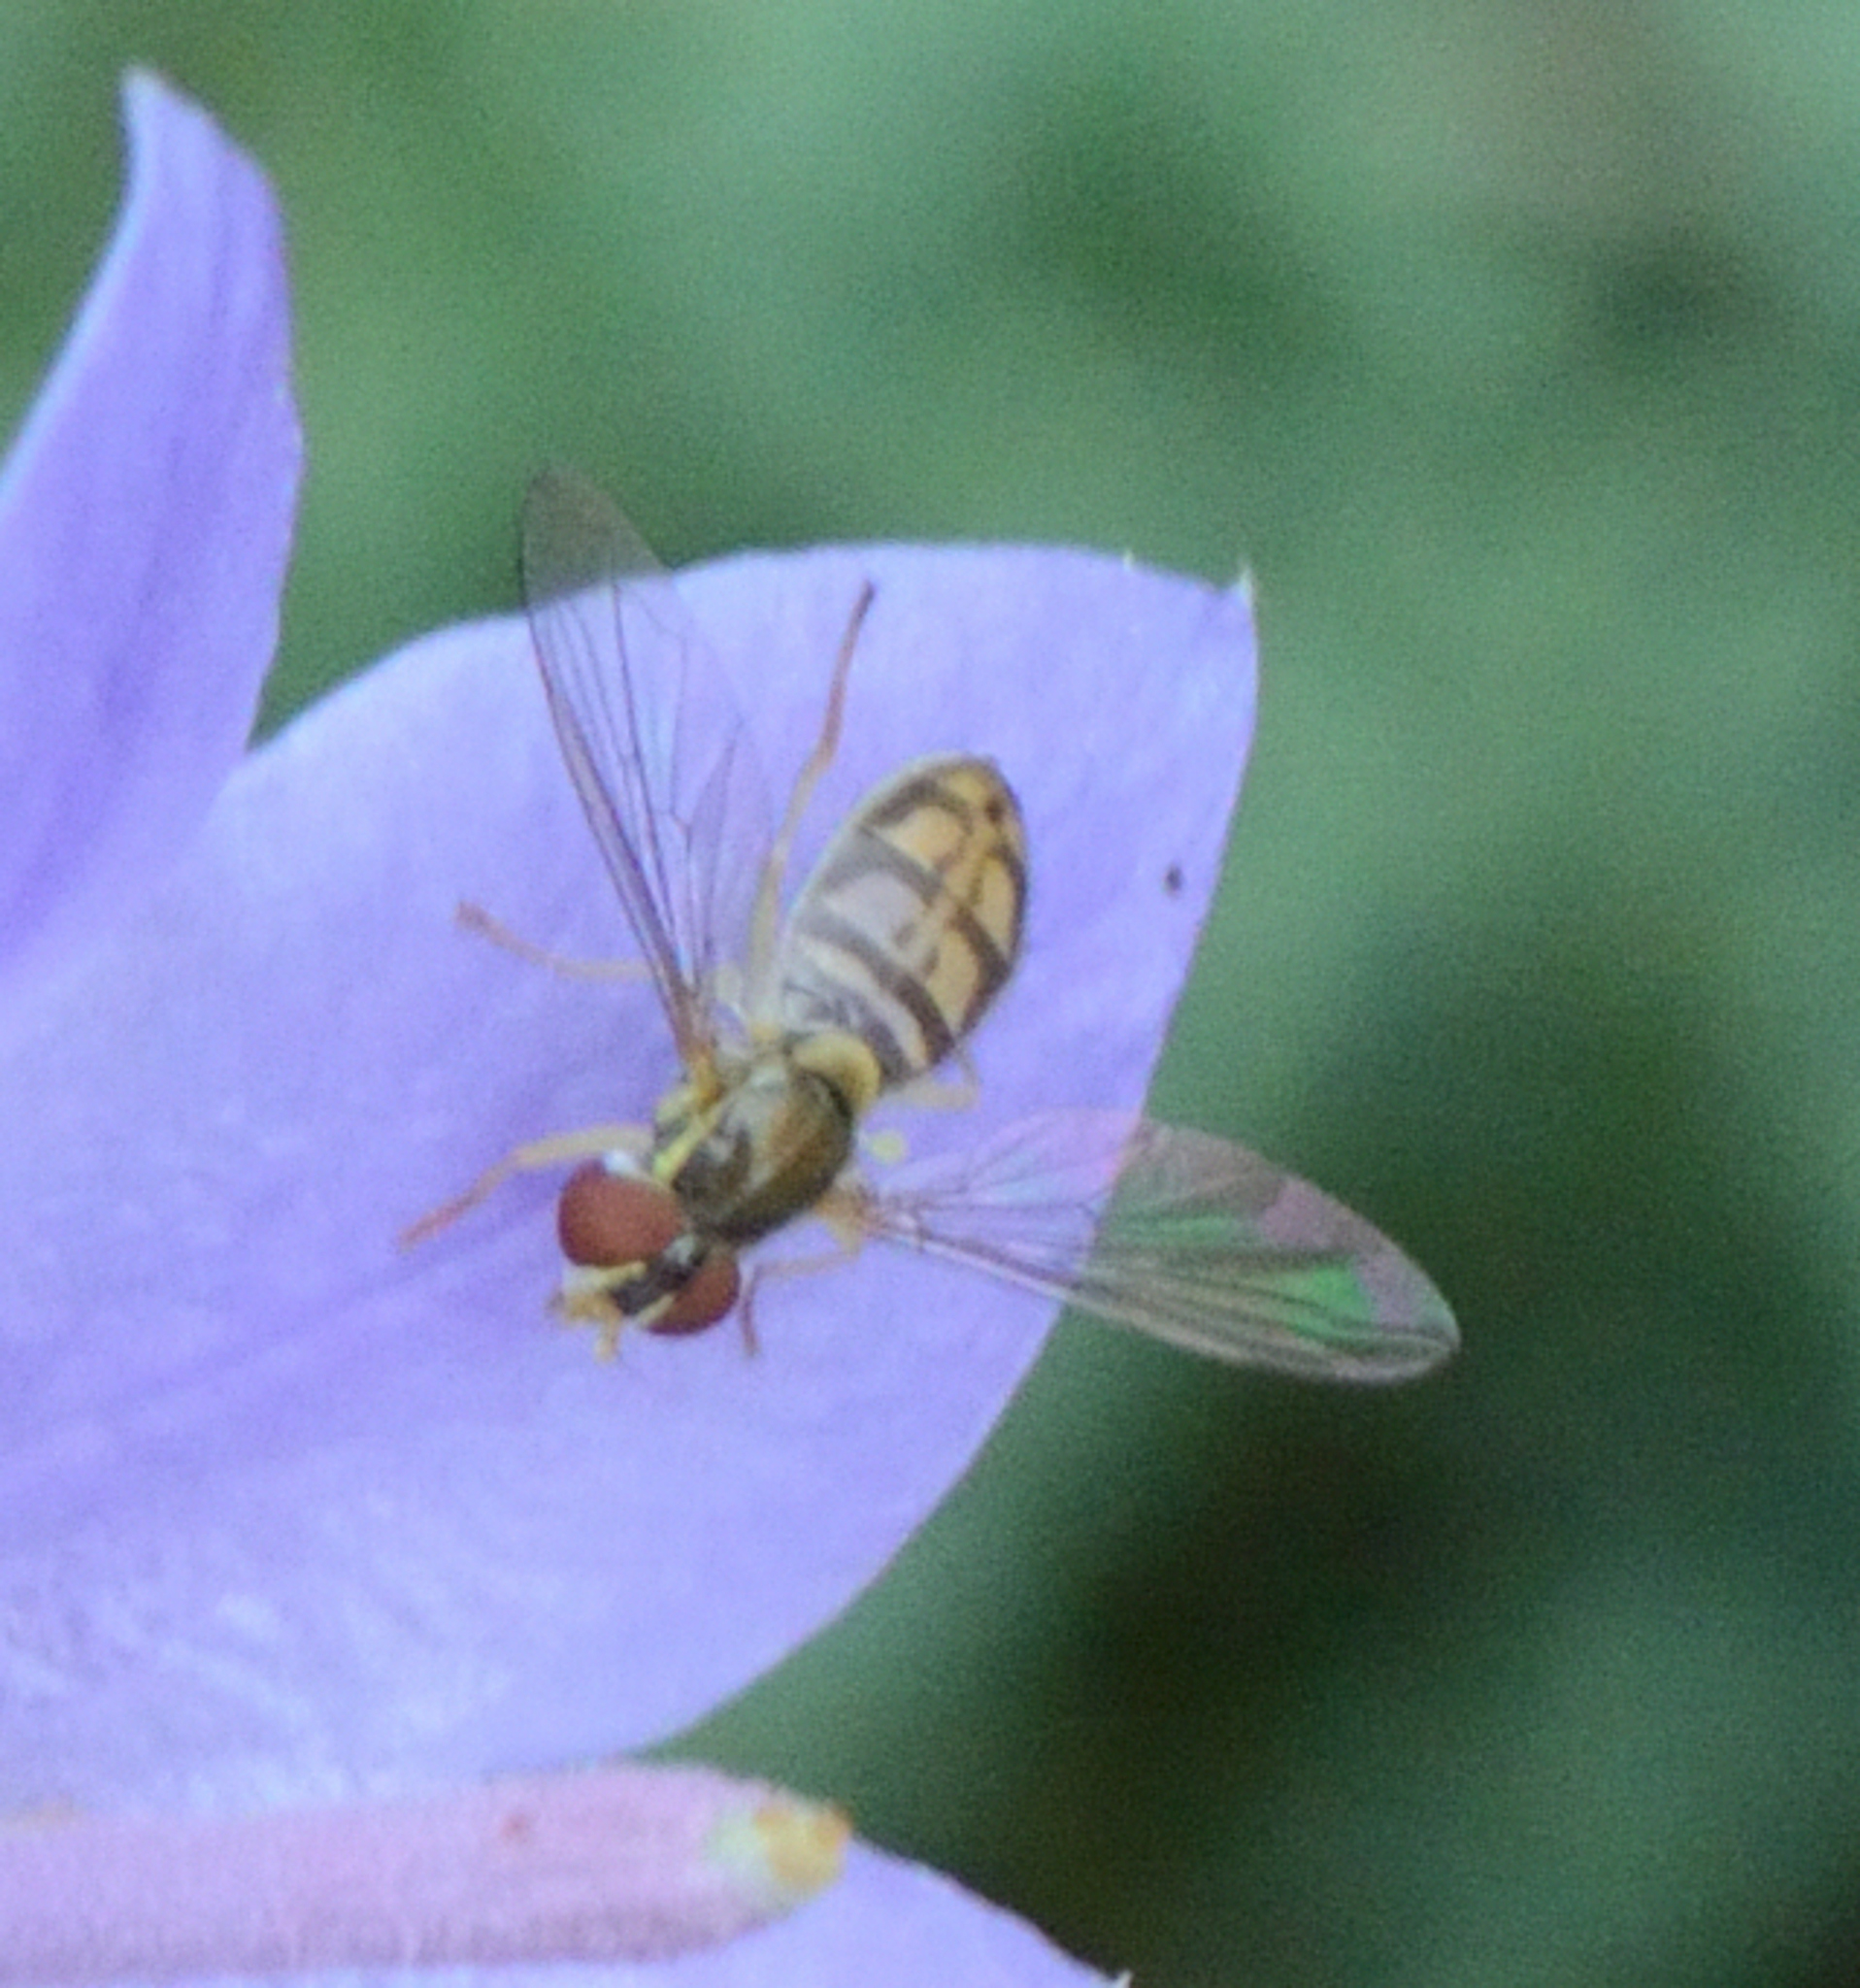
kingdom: Animalia
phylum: Arthropoda
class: Insecta
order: Diptera
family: Syrphidae
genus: Toxomerus
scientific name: Toxomerus marginatus
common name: Syrphid fly
